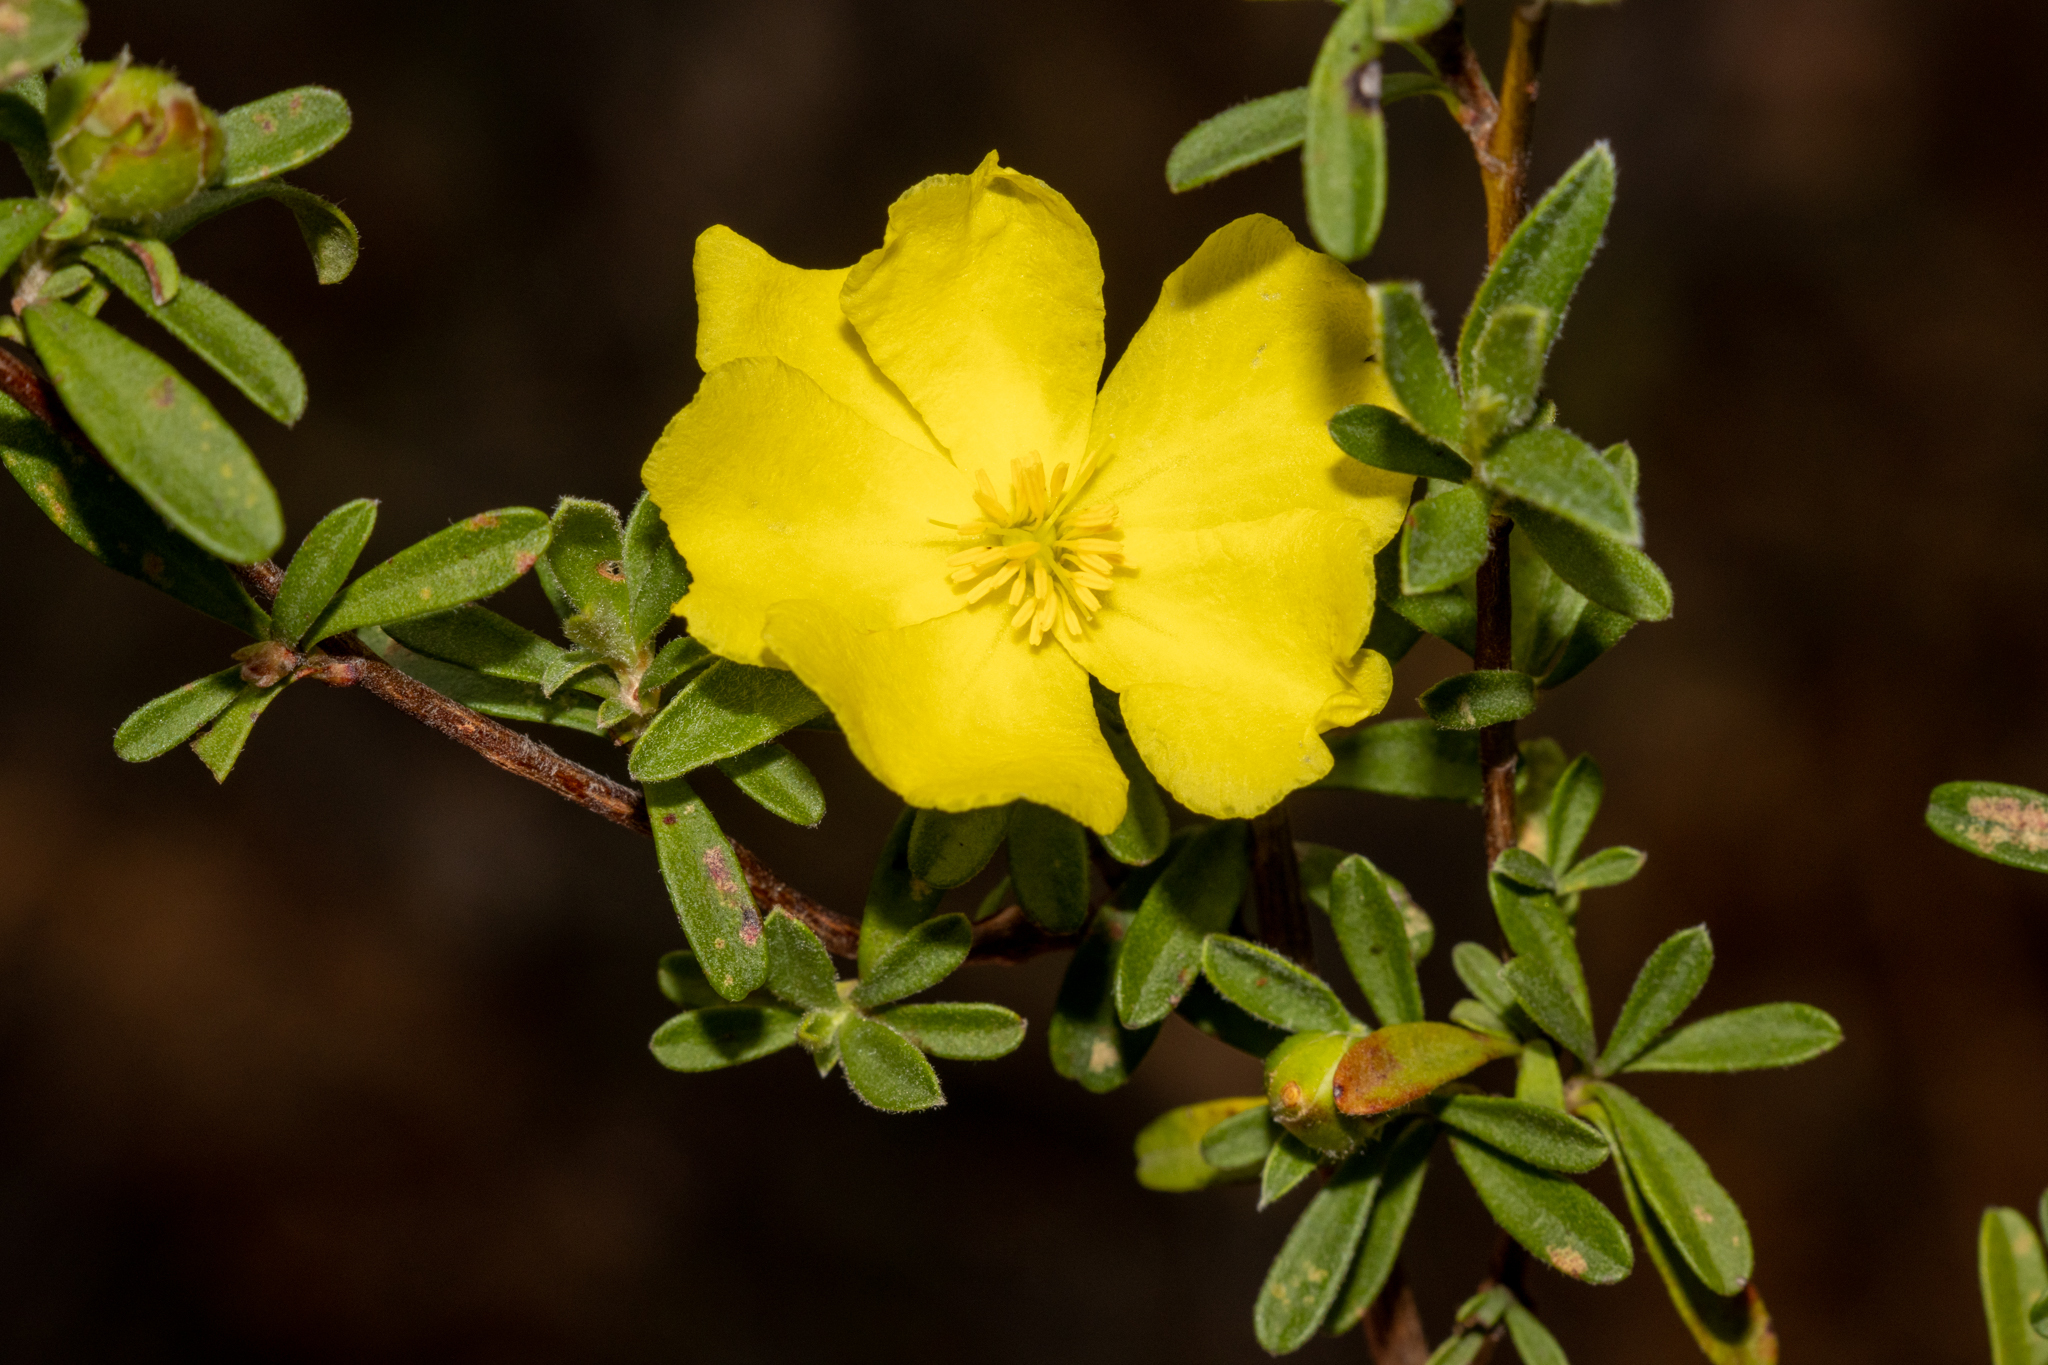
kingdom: Plantae
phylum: Tracheophyta
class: Magnoliopsida
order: Dilleniales
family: Dilleniaceae
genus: Hibbertia
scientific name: Hibbertia obtusifolia
